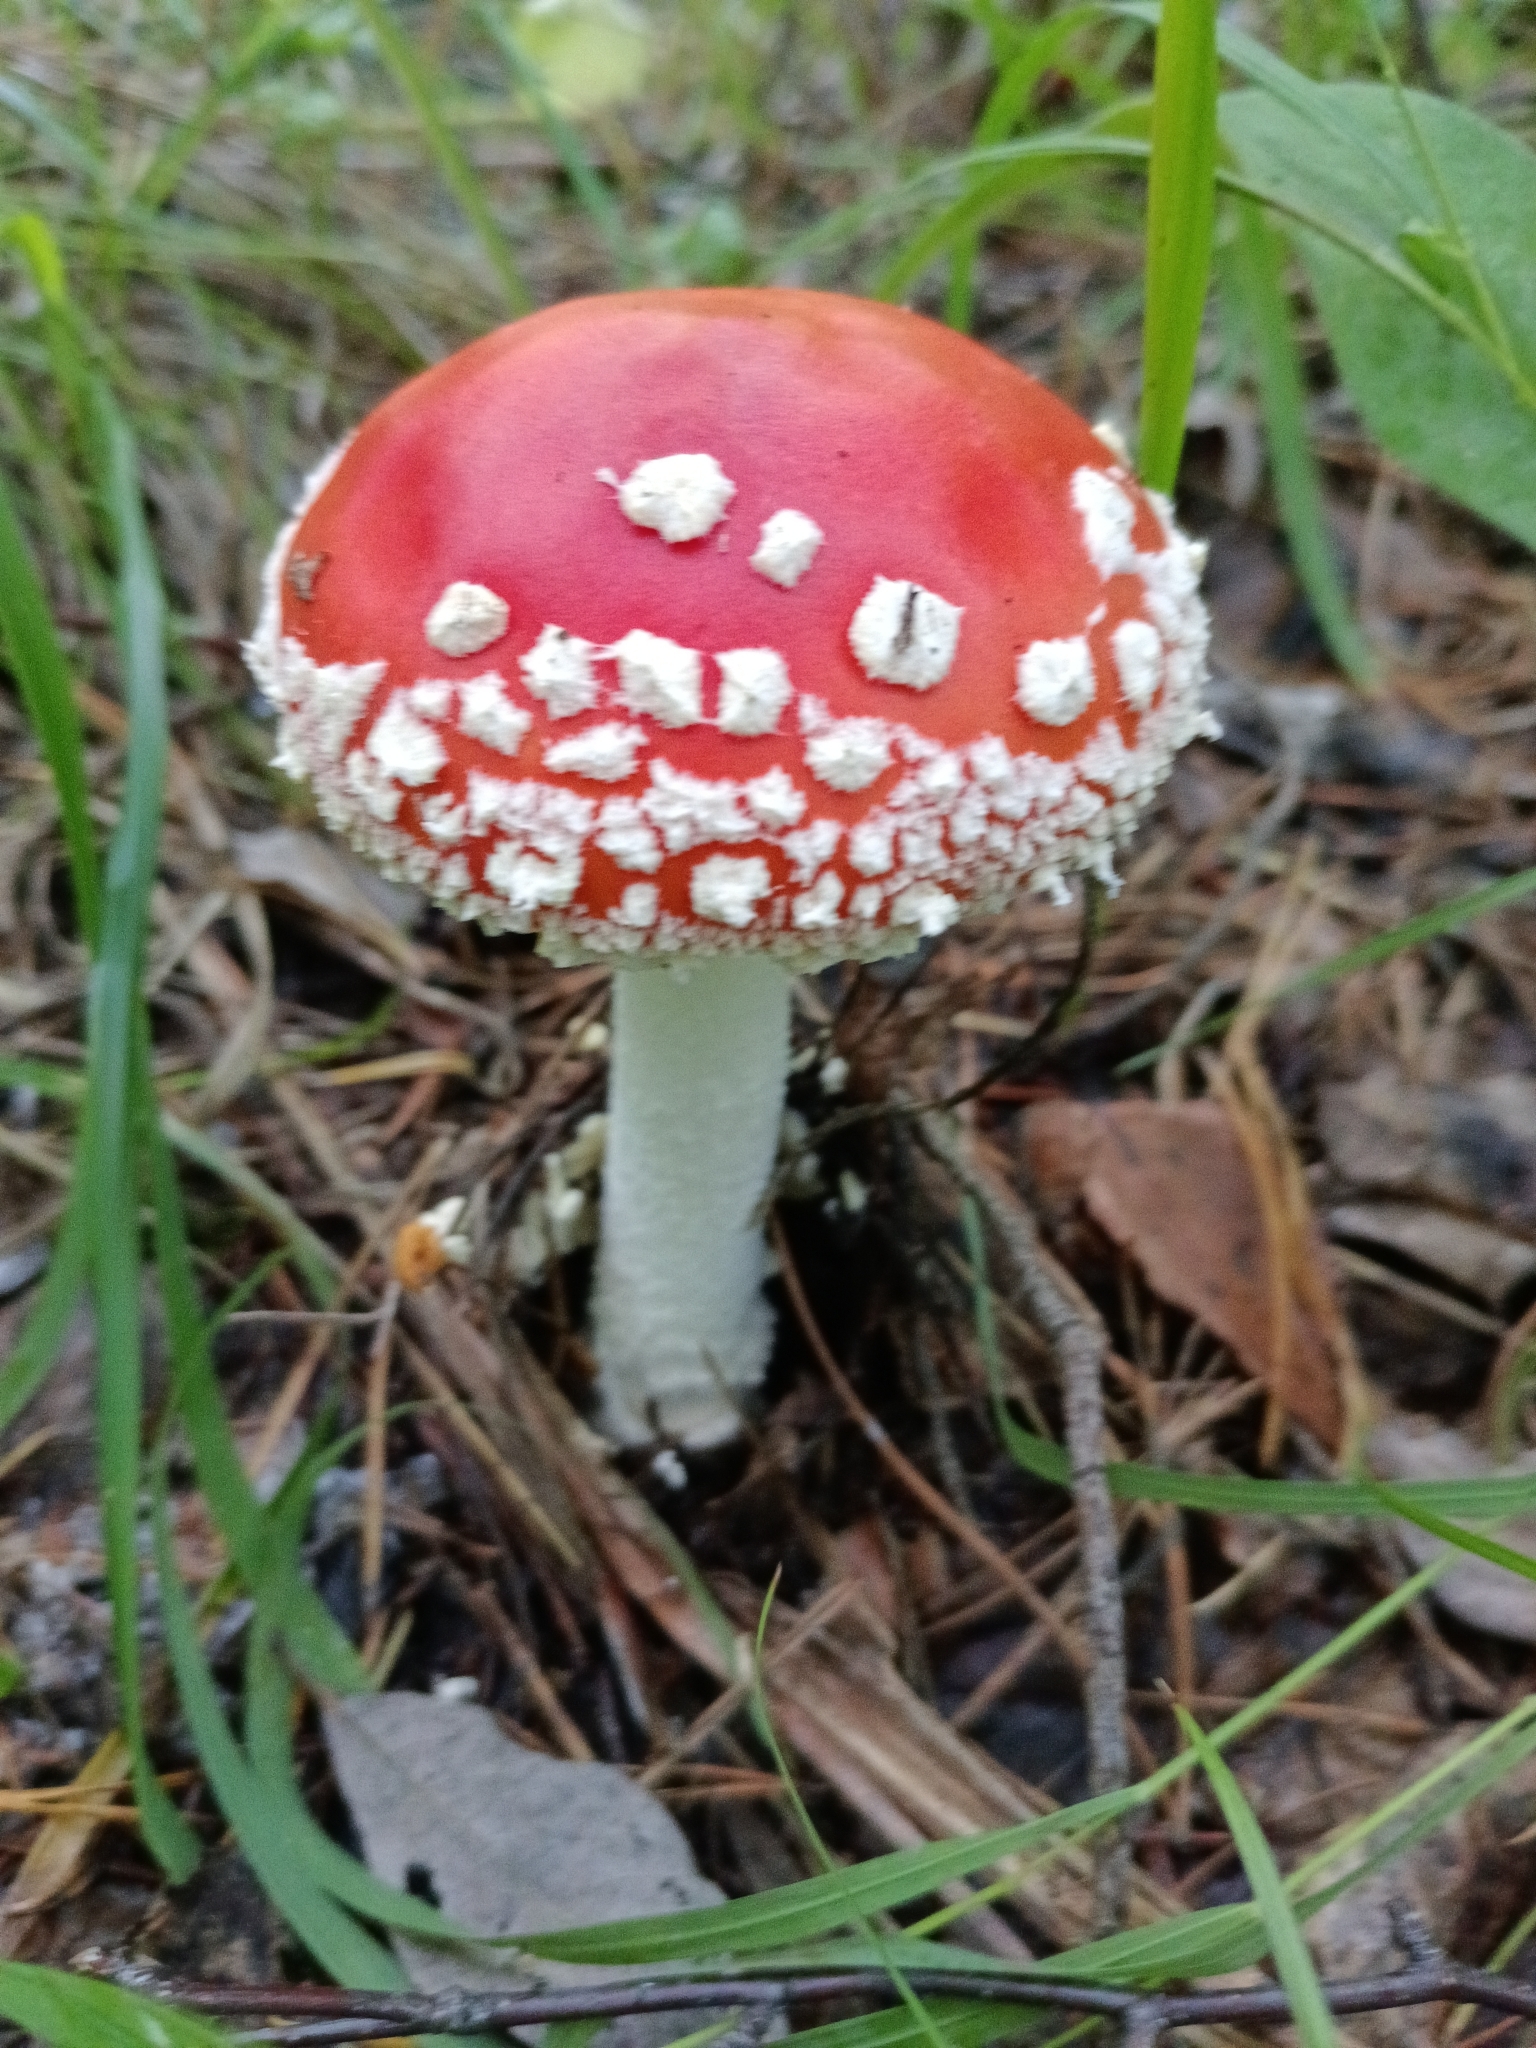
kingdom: Fungi
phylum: Basidiomycota
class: Agaricomycetes
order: Agaricales
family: Amanitaceae
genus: Amanita
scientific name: Amanita muscaria
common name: Fly agaric
